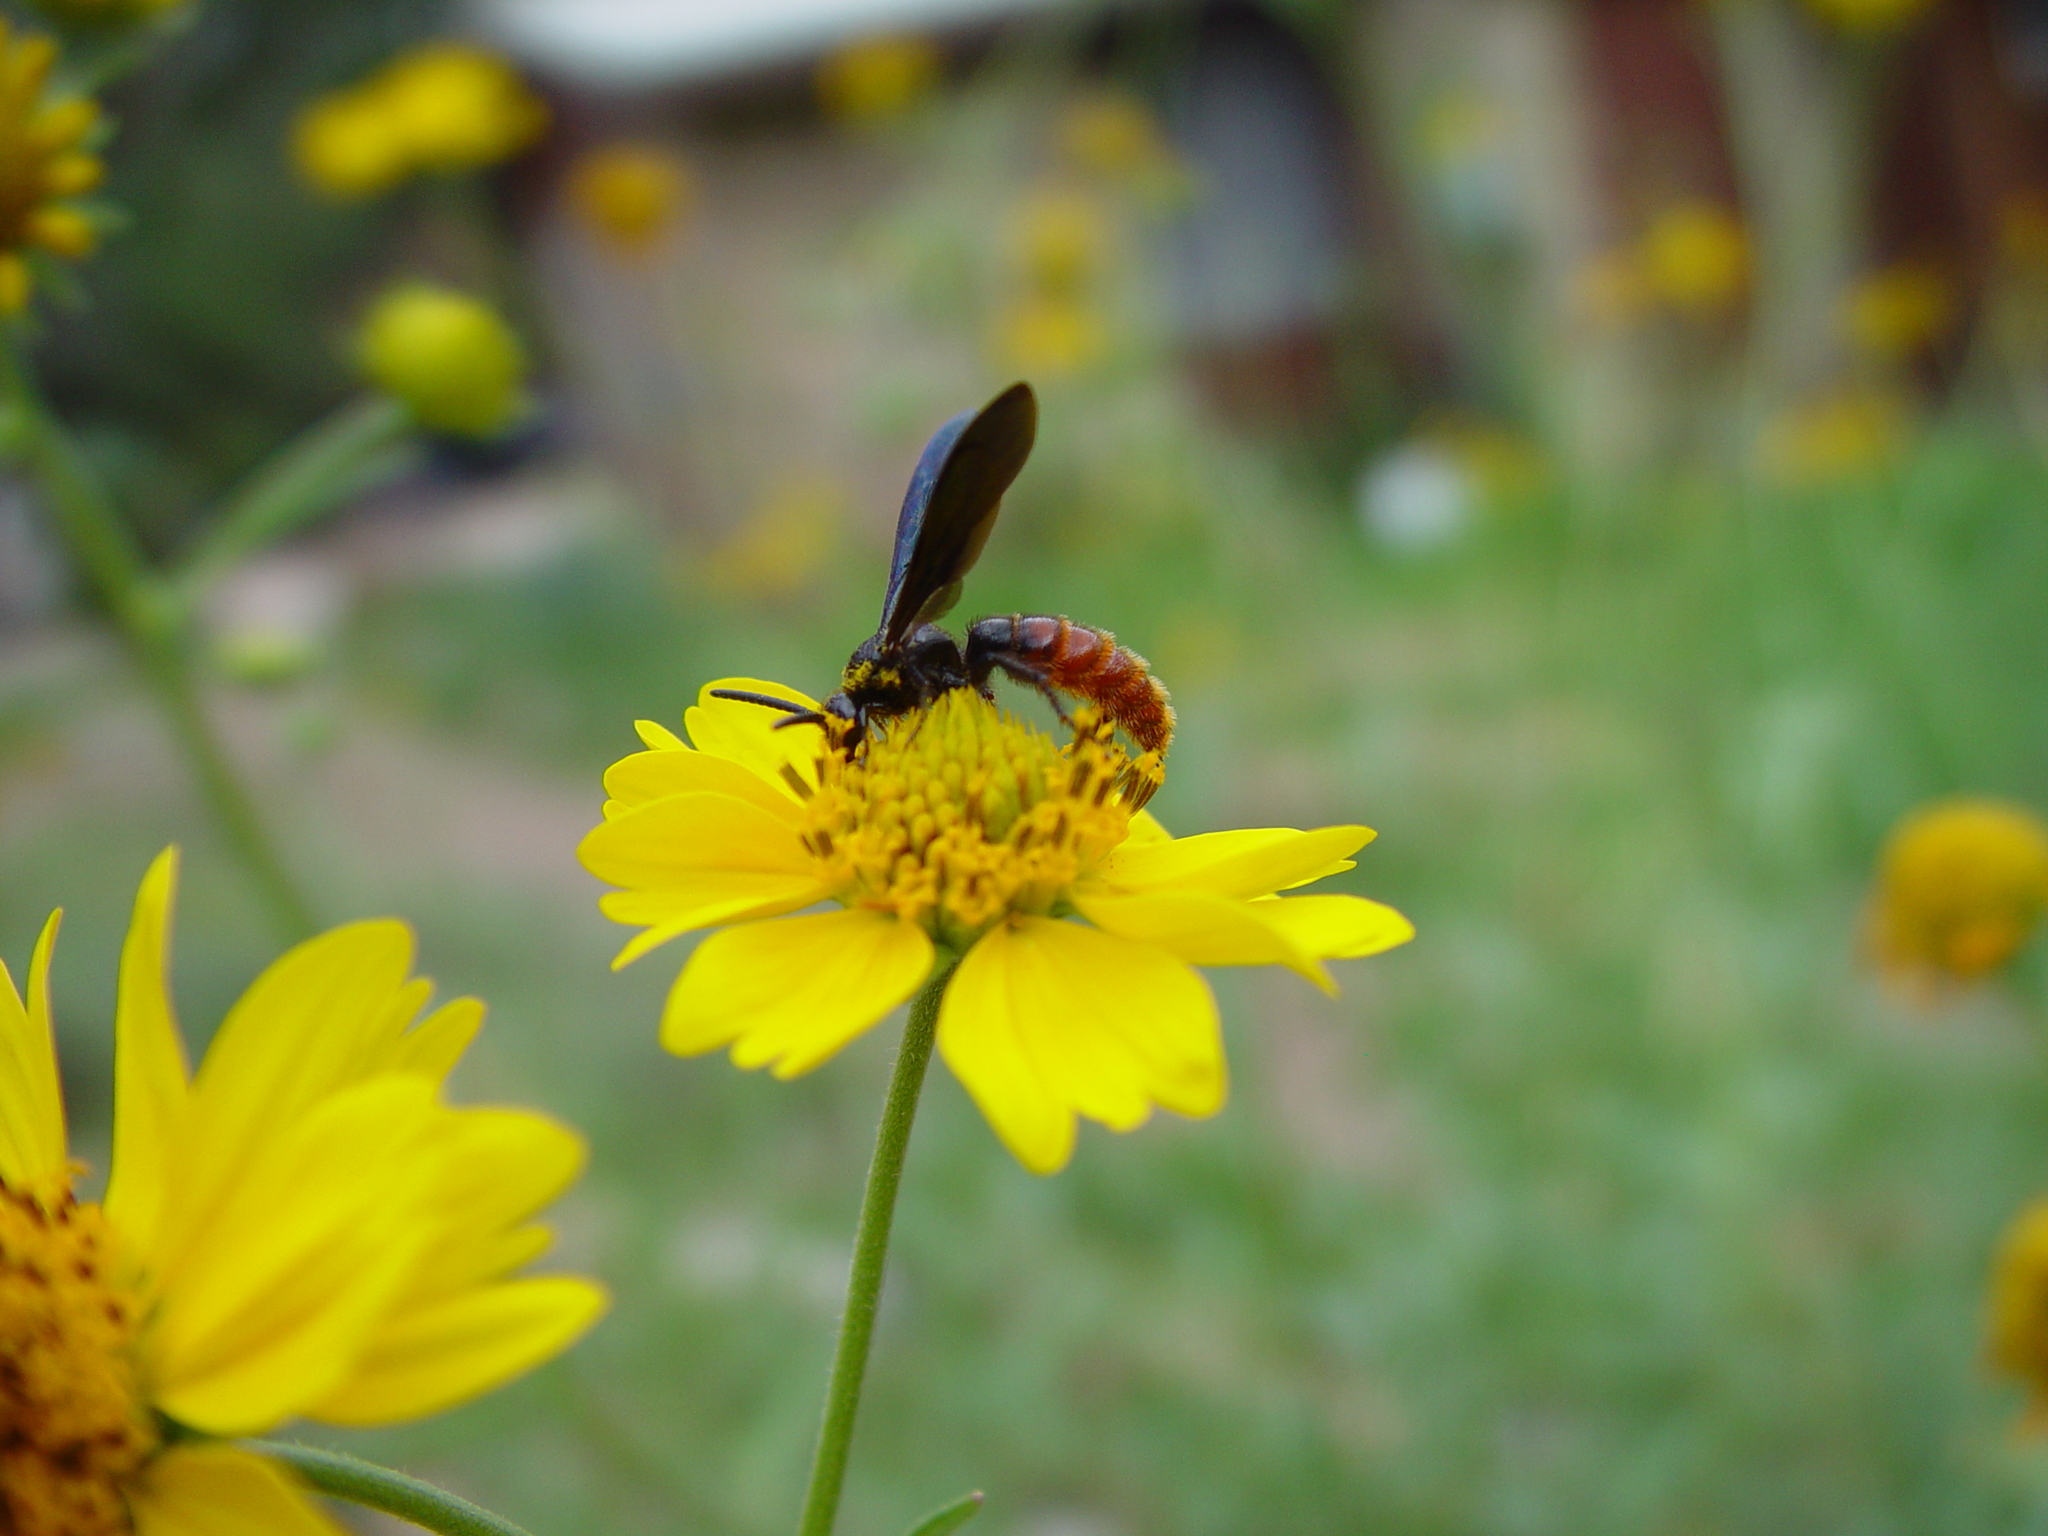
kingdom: Animalia
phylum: Arthropoda
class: Insecta
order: Hymenoptera
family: Scoliidae
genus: Triscolia
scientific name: Triscolia ardens
